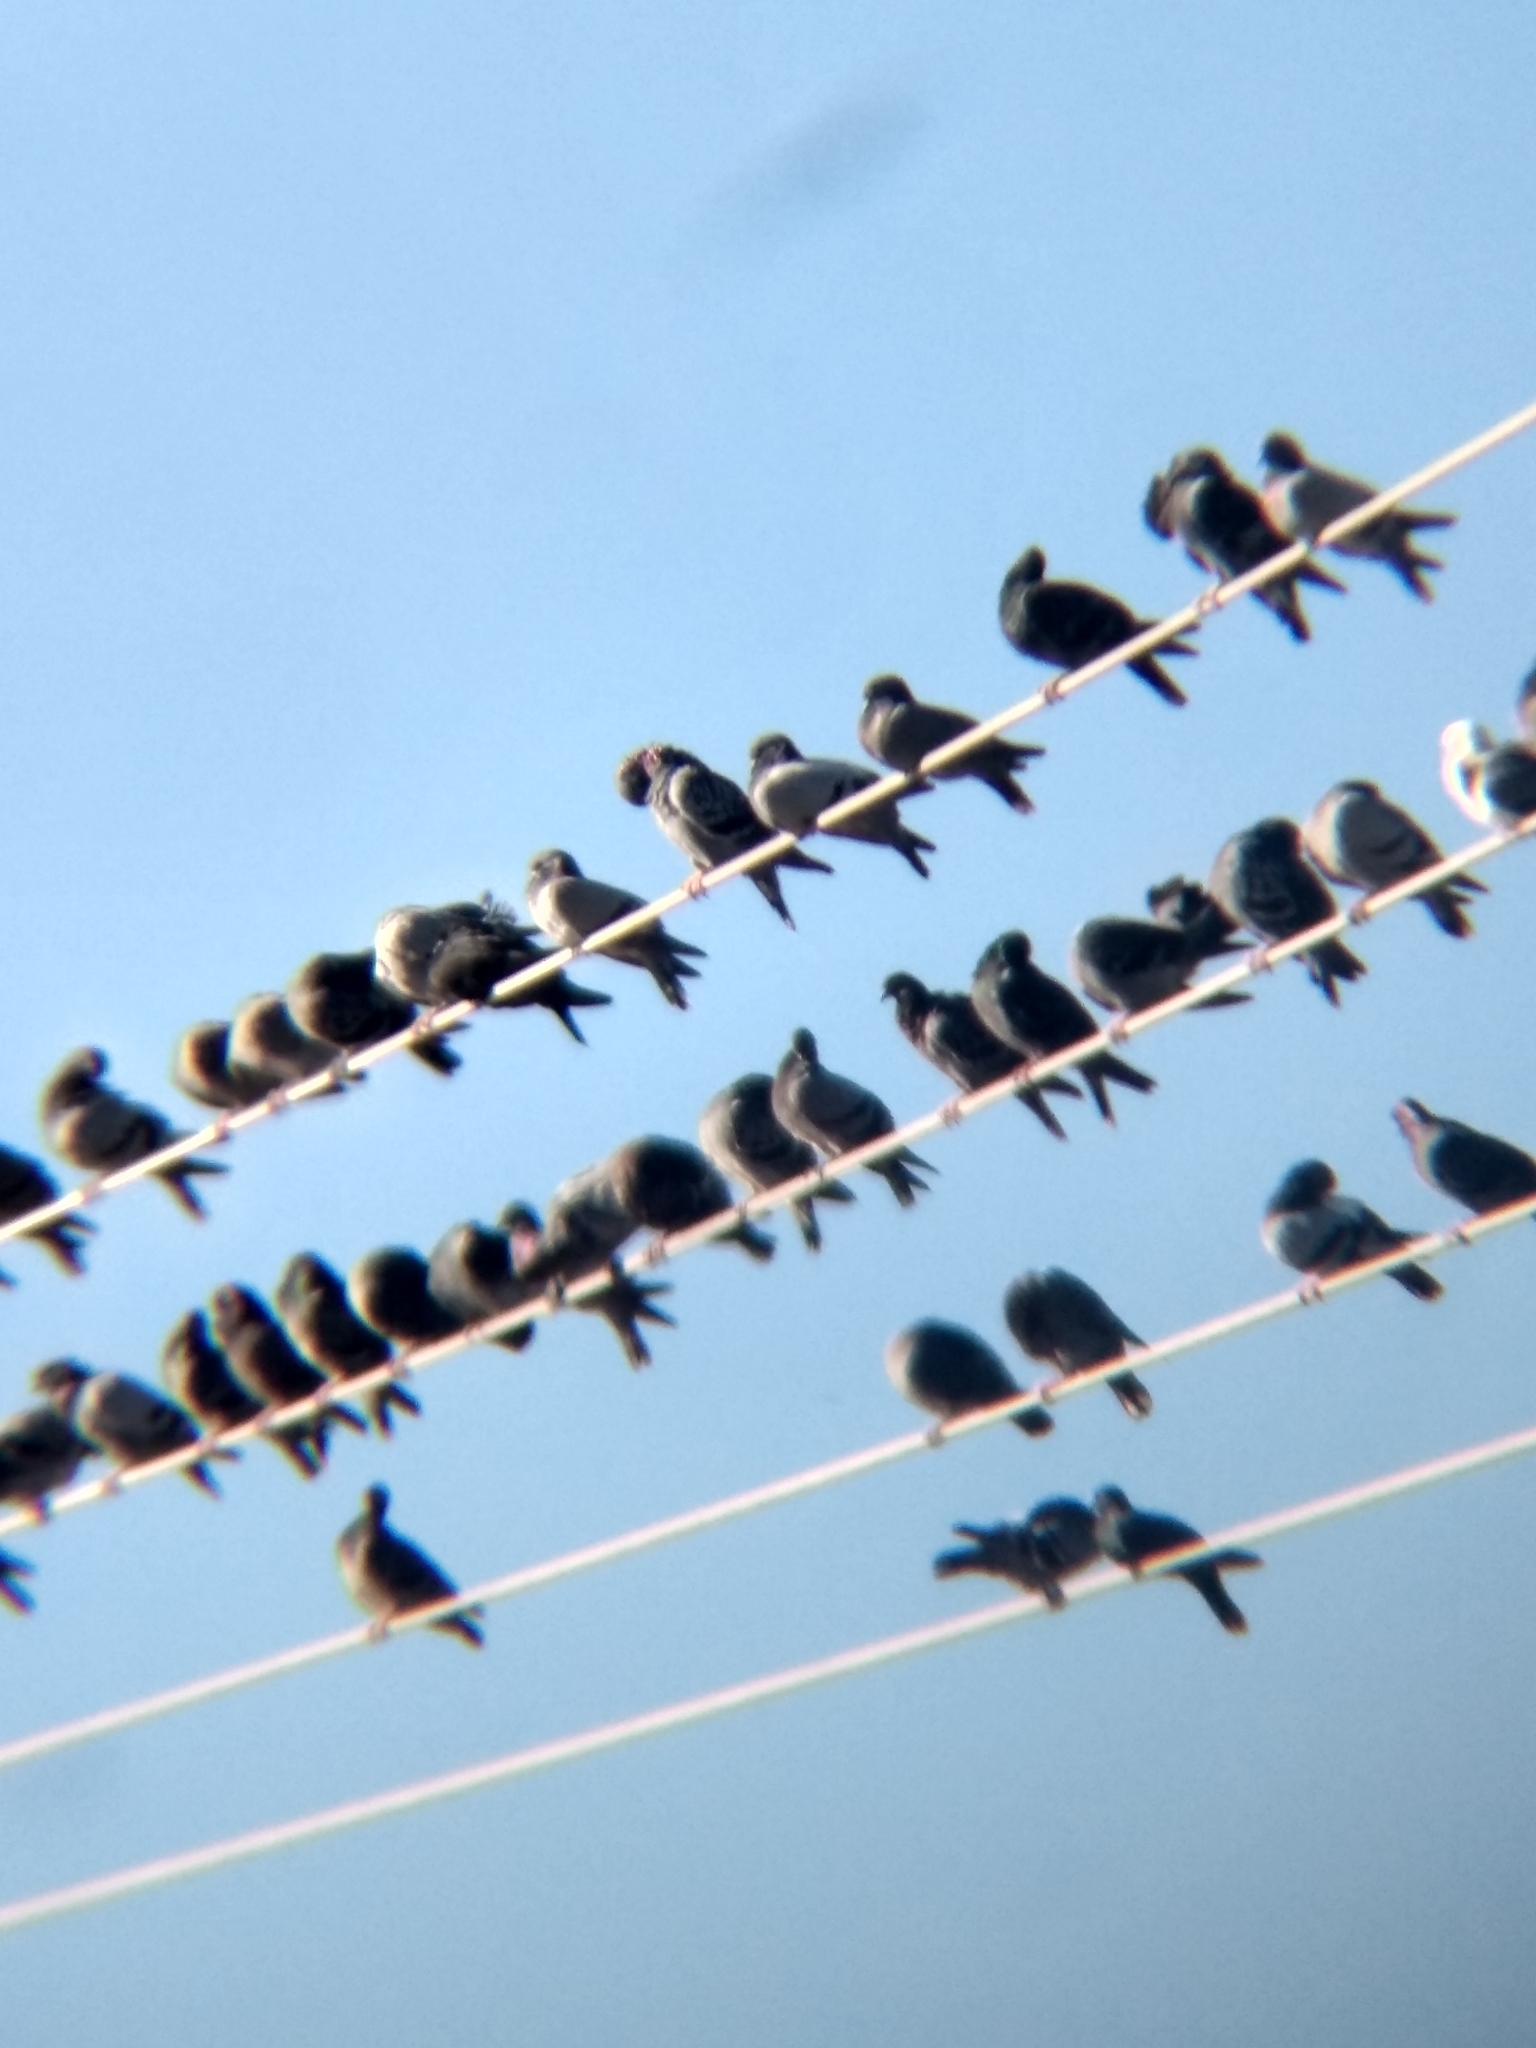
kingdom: Animalia
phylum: Chordata
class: Aves
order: Columbiformes
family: Columbidae
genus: Columba
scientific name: Columba livia
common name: Rock pigeon
